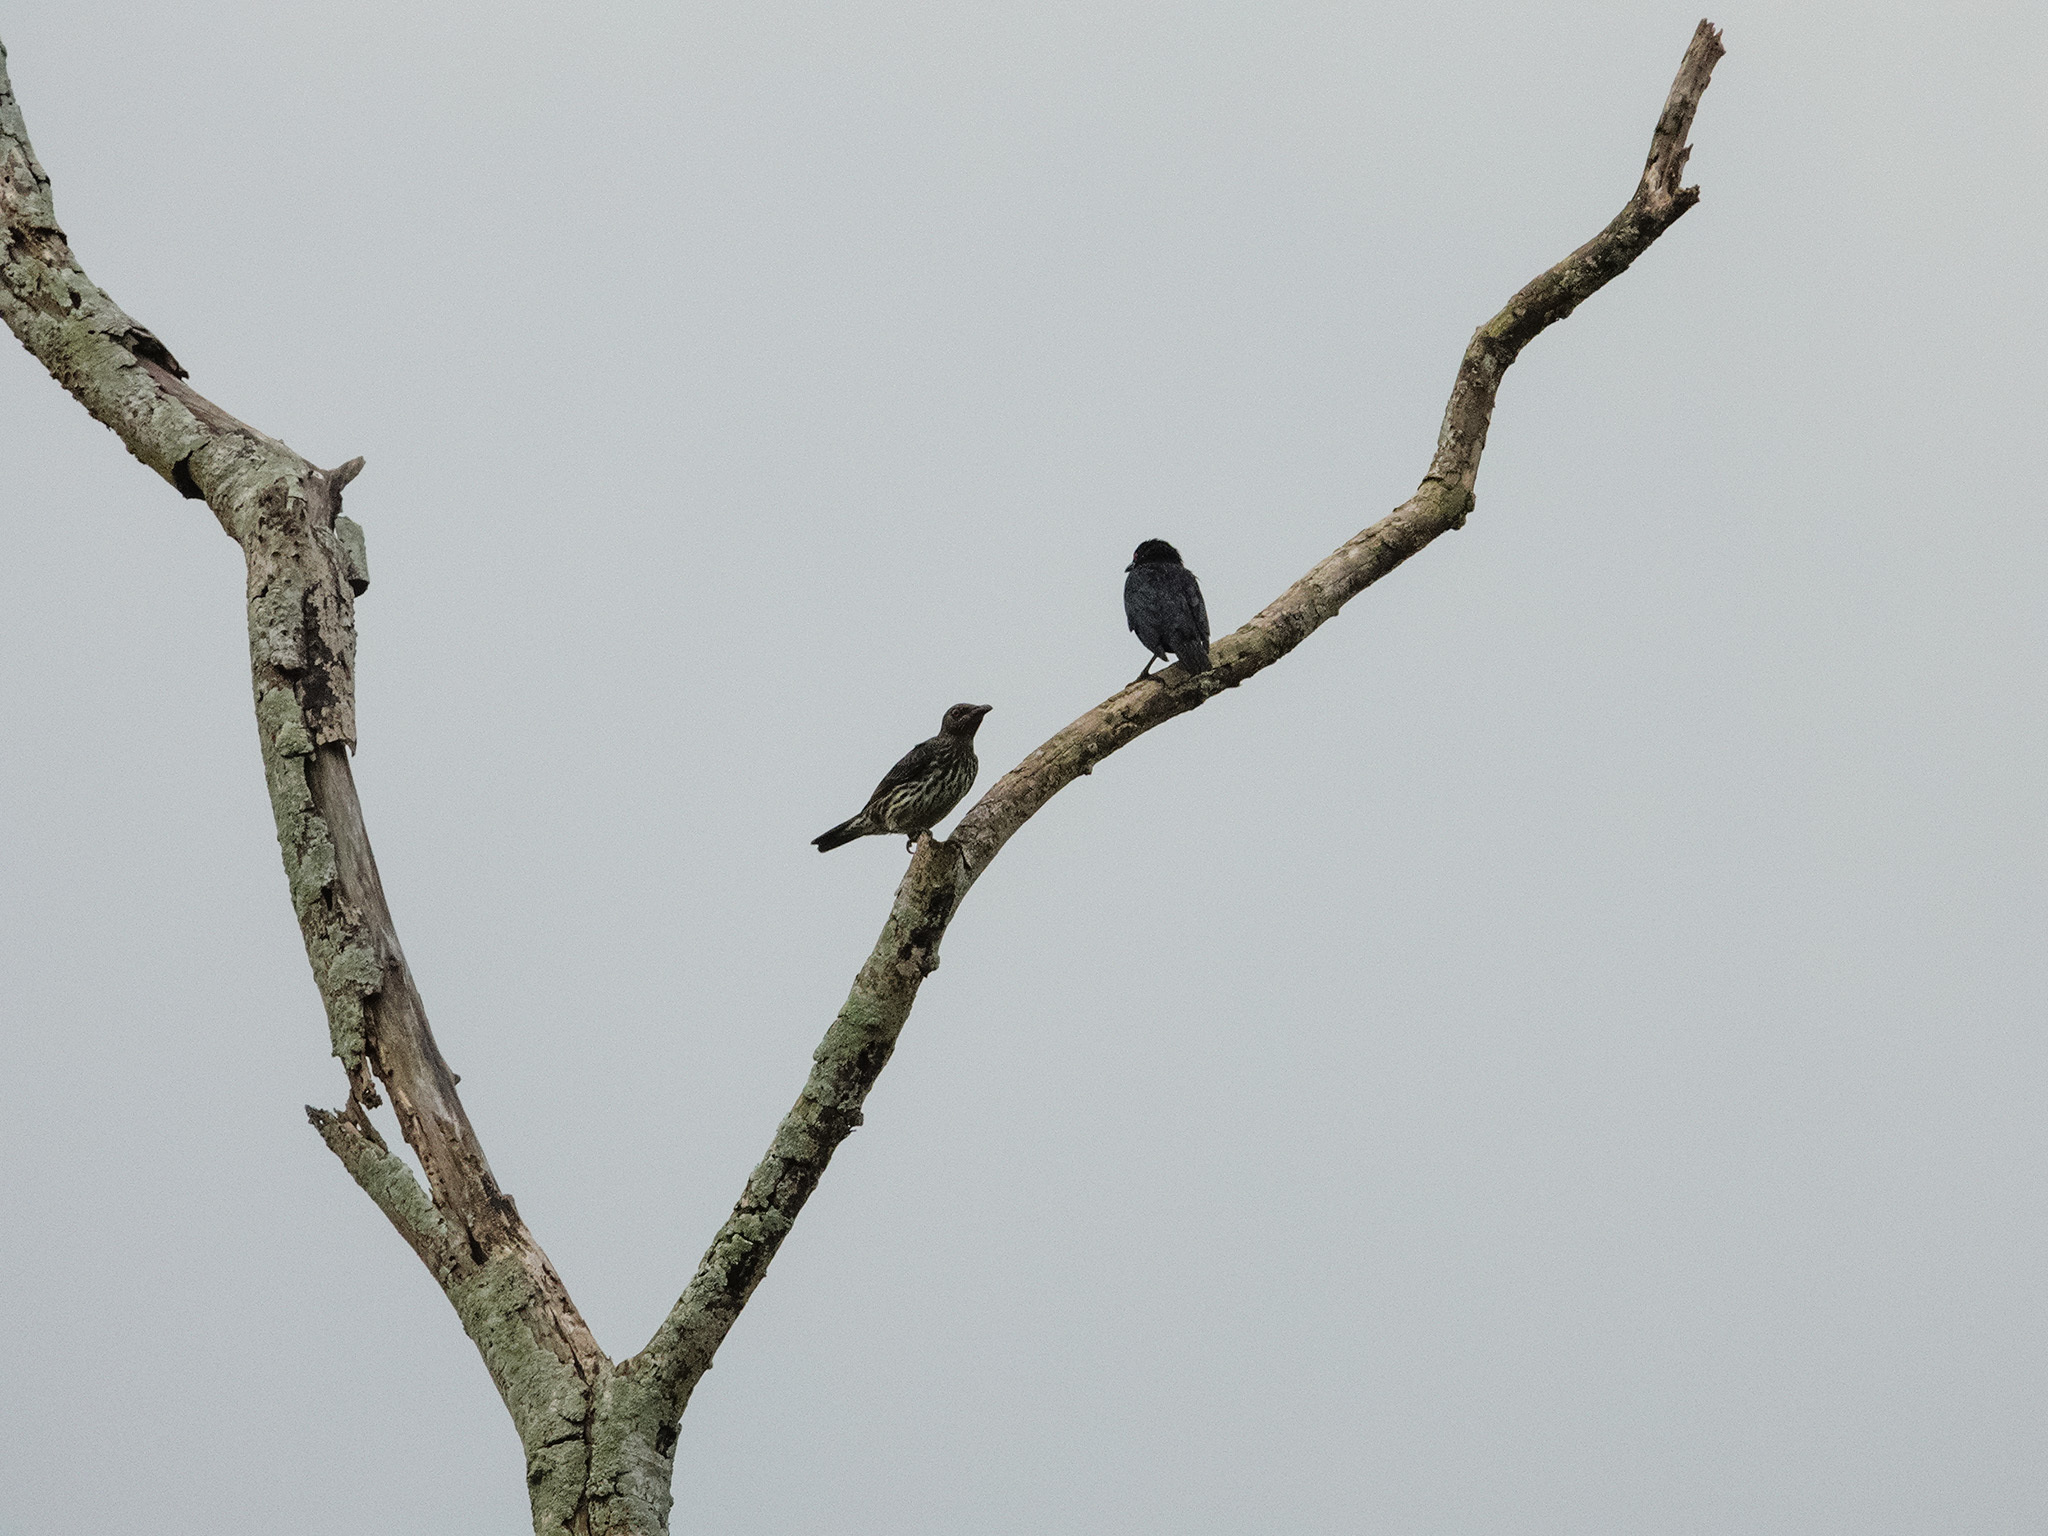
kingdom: Animalia
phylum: Chordata
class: Aves
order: Passeriformes
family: Sturnidae
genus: Aplonis
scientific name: Aplonis panayensis
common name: Asian glossy starling
